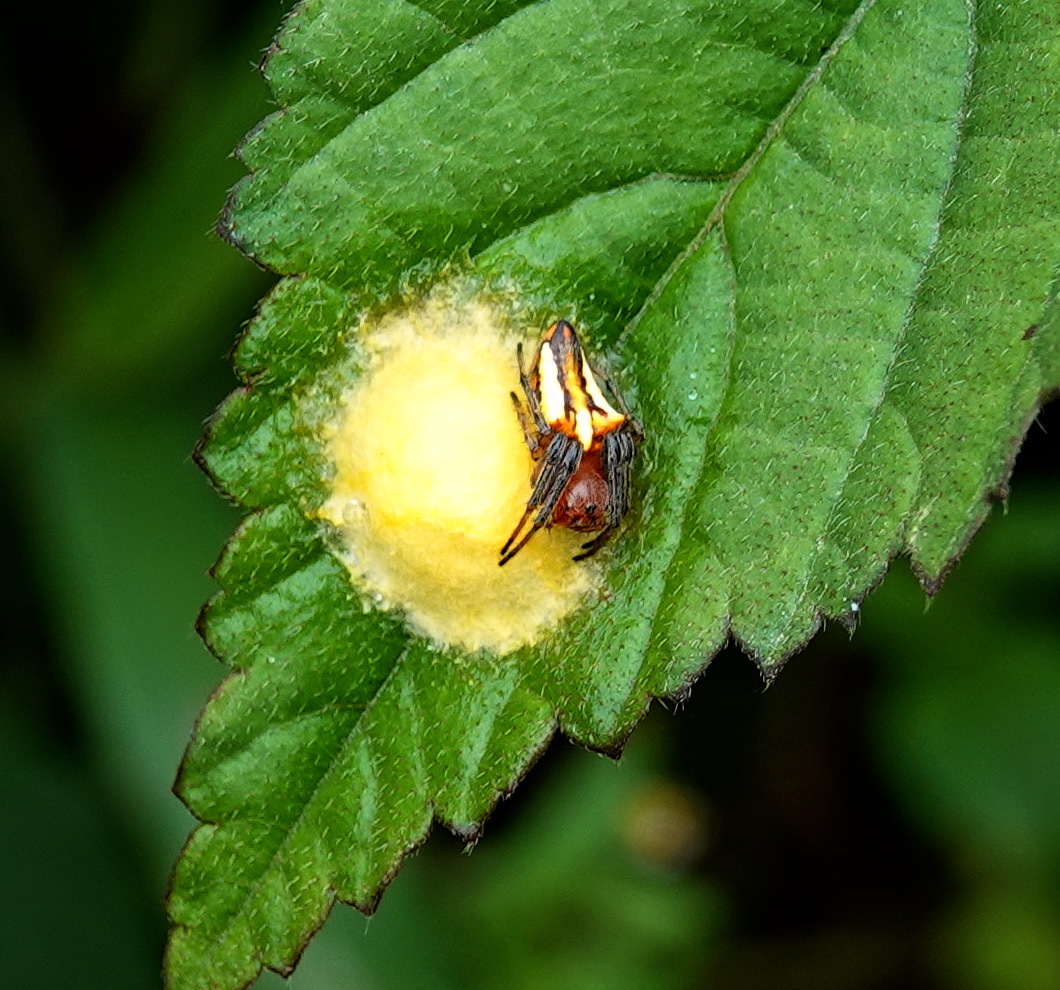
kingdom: Animalia
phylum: Arthropoda
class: Arachnida
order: Araneae
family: Araneidae
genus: Alpaida
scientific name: Alpaida bicornuta
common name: Orb weavers
